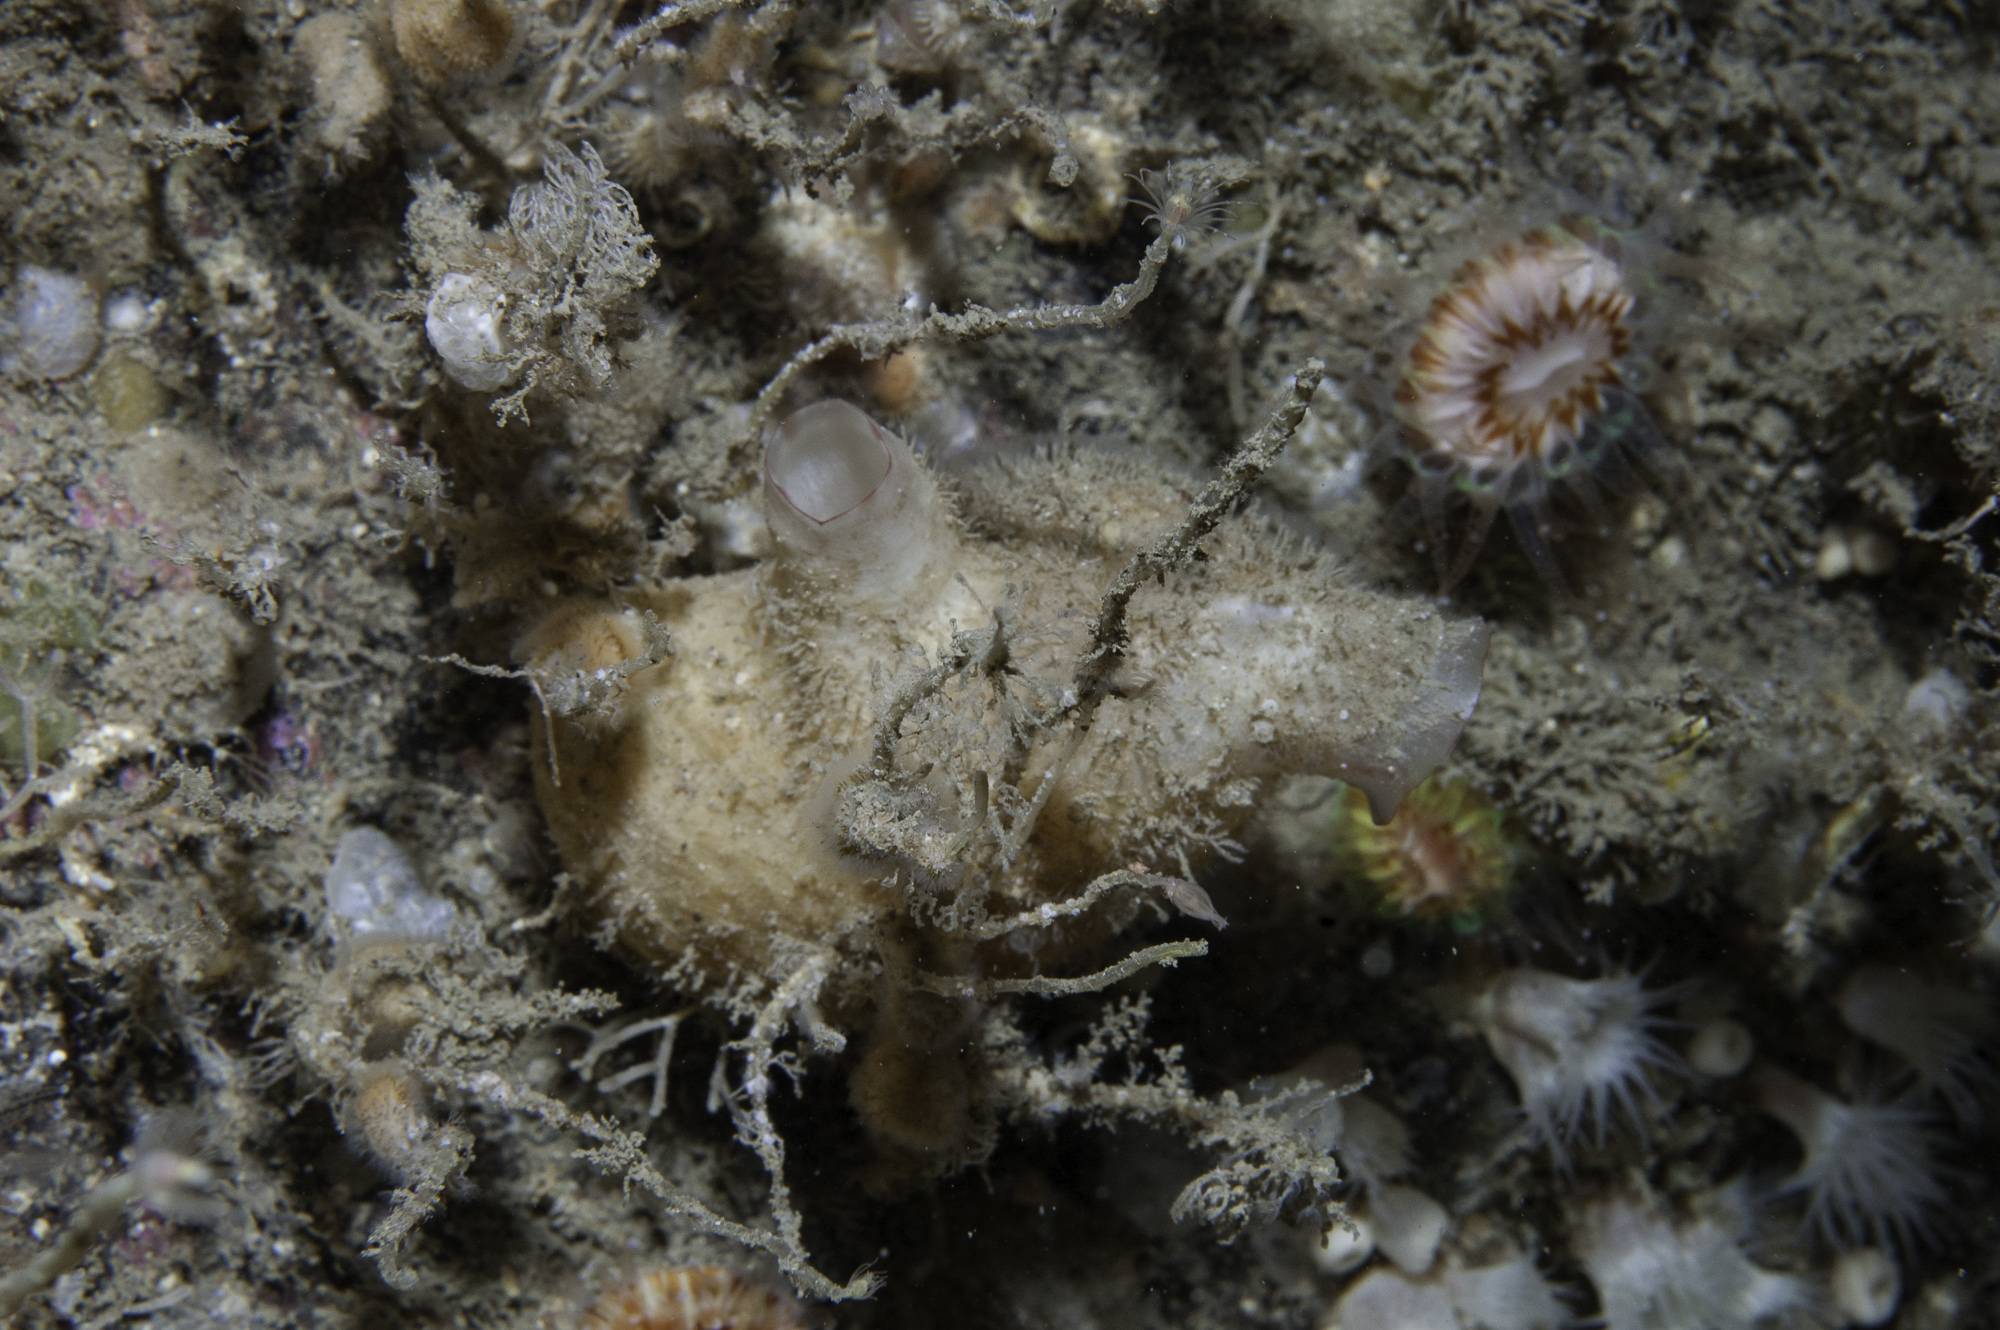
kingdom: Animalia
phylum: Cnidaria
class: Anthozoa
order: Zoantharia
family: Parazoanthidae
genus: Parazoanthus
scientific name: Parazoanthus anguicomus
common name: White cluster anemone
